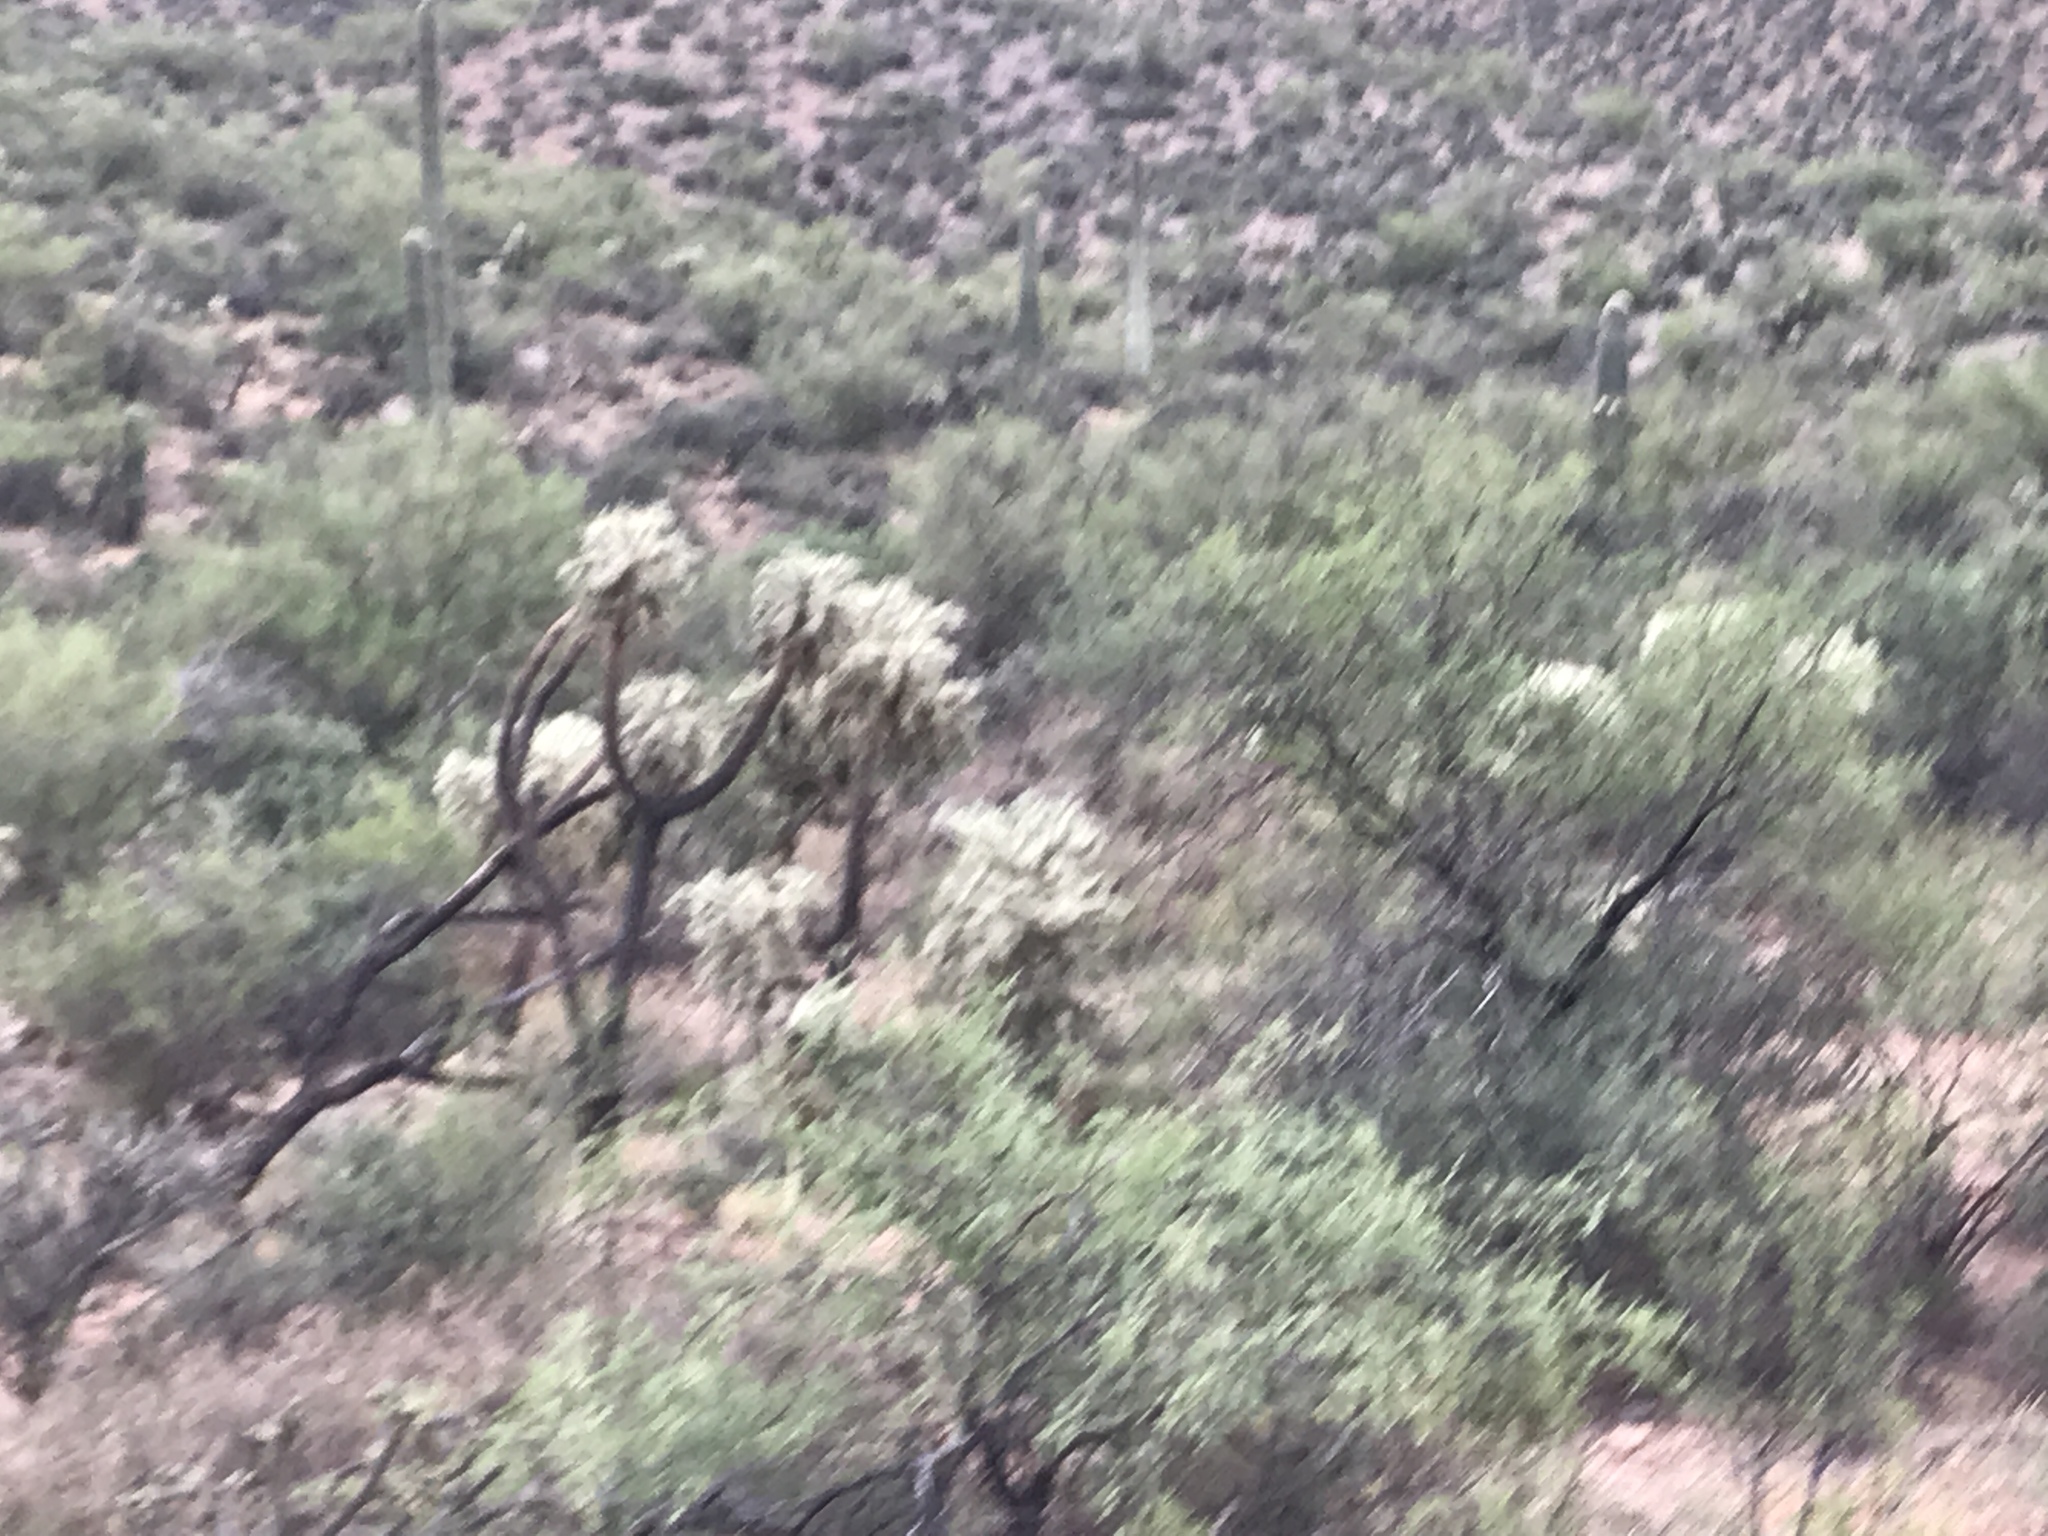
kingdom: Plantae
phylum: Tracheophyta
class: Magnoliopsida
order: Caryophyllales
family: Cactaceae
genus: Cylindropuntia
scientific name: Cylindropuntia fulgida
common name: Jumping cholla
